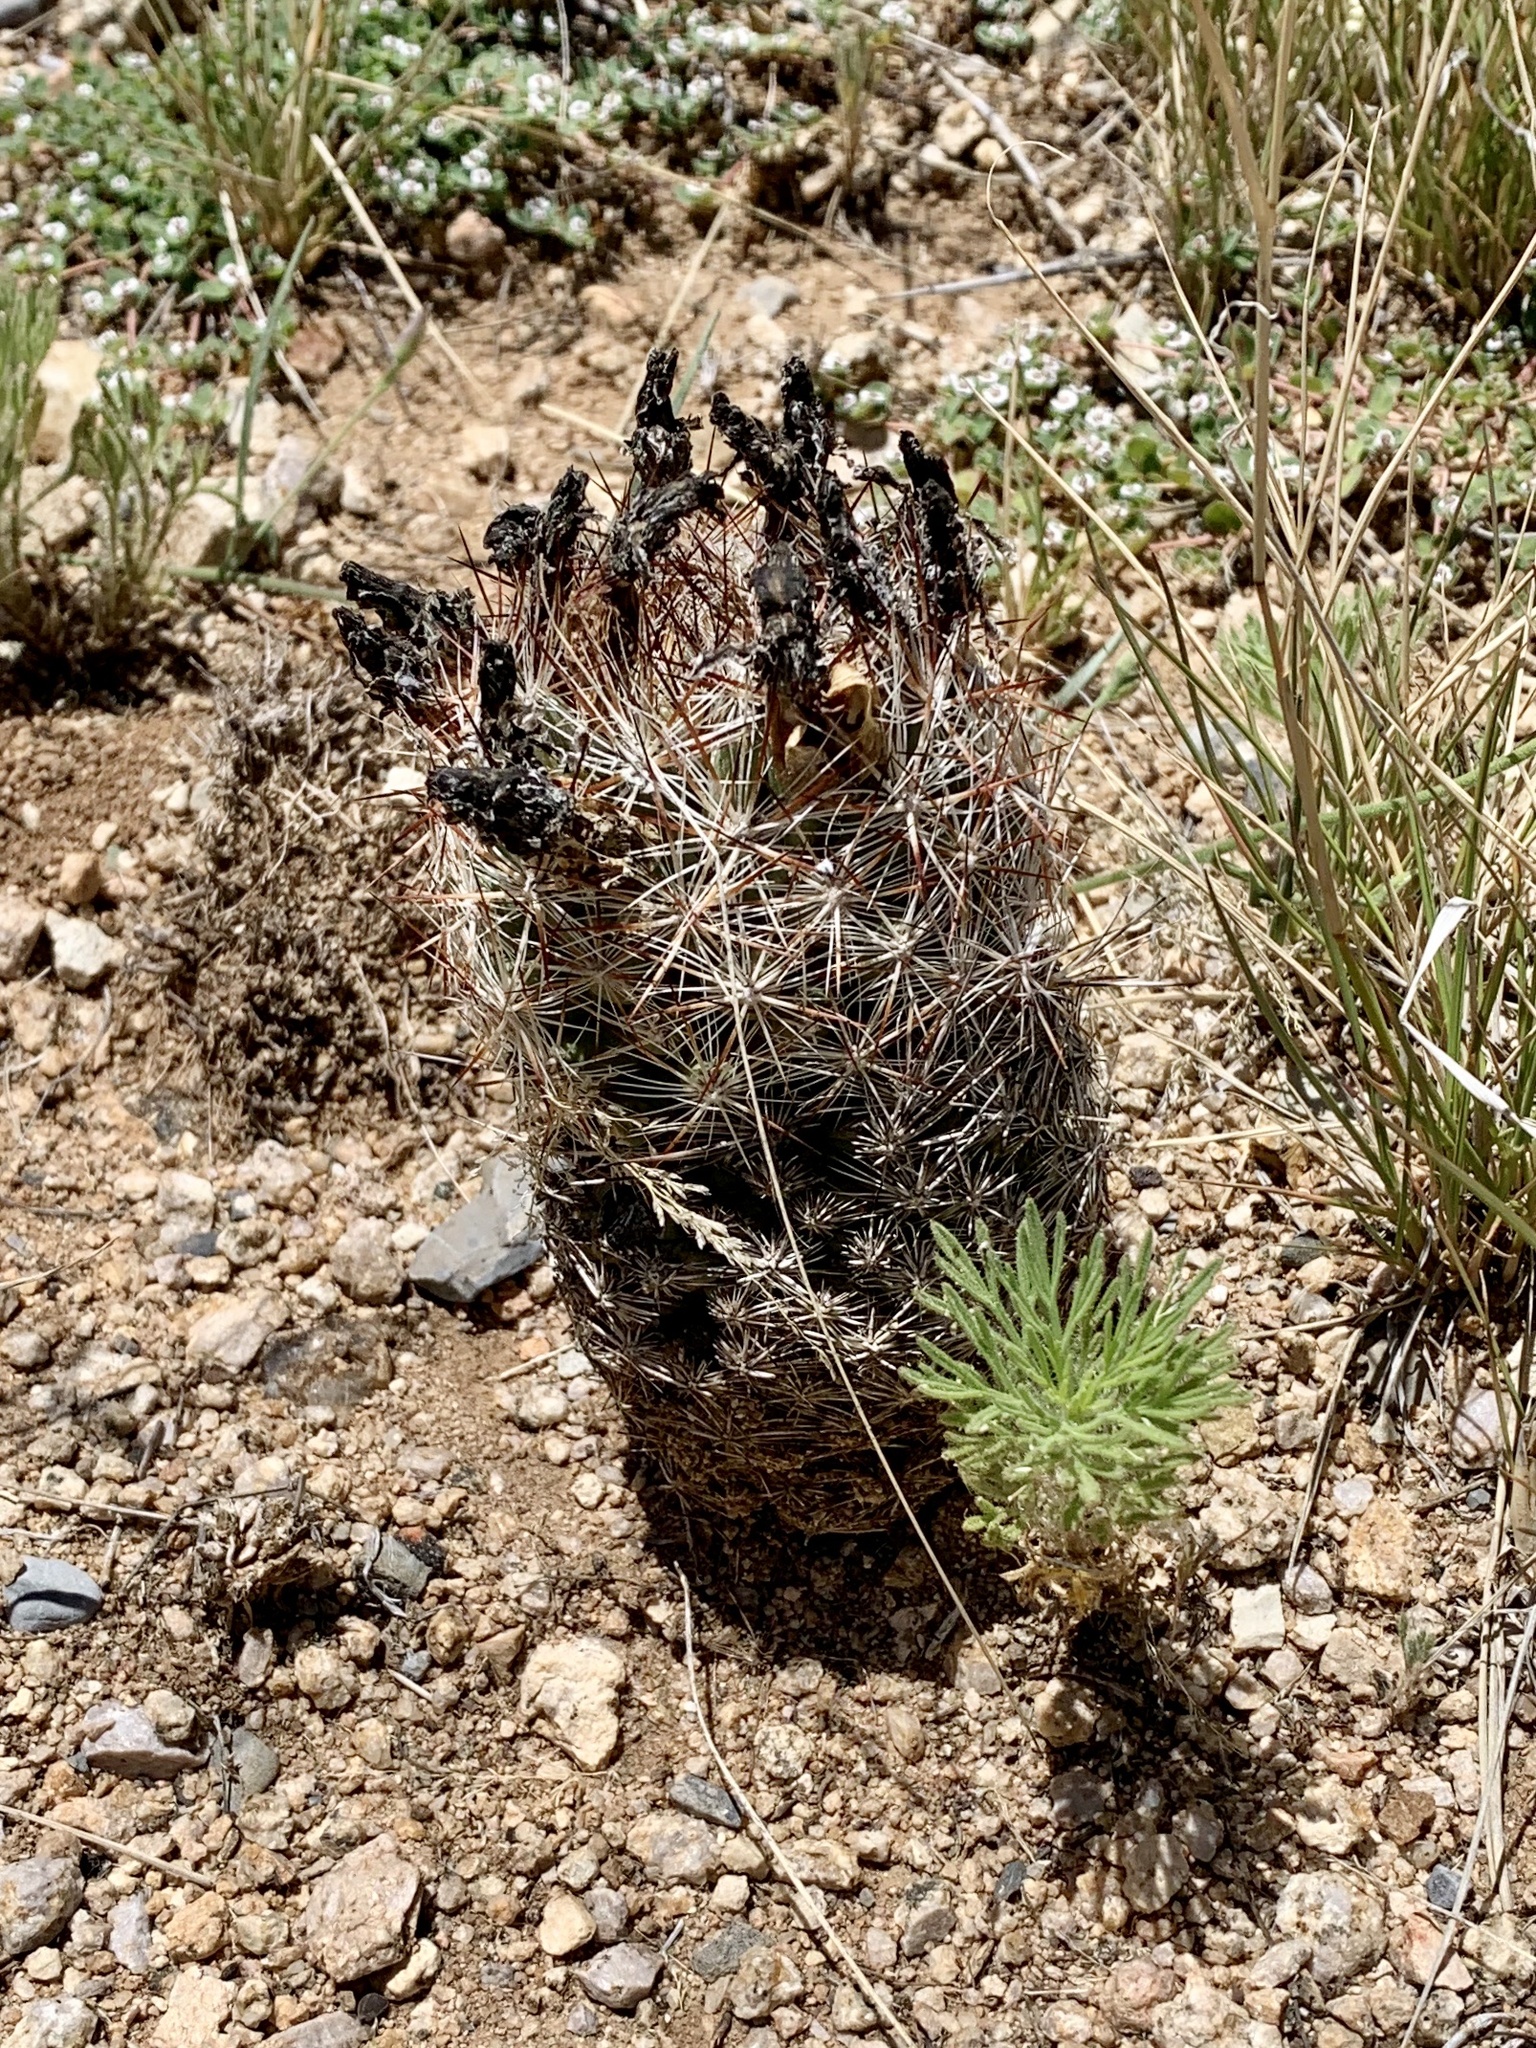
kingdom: Plantae
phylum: Tracheophyta
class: Magnoliopsida
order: Caryophyllales
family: Cactaceae
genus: Pelecyphora
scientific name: Pelecyphora vivipara
